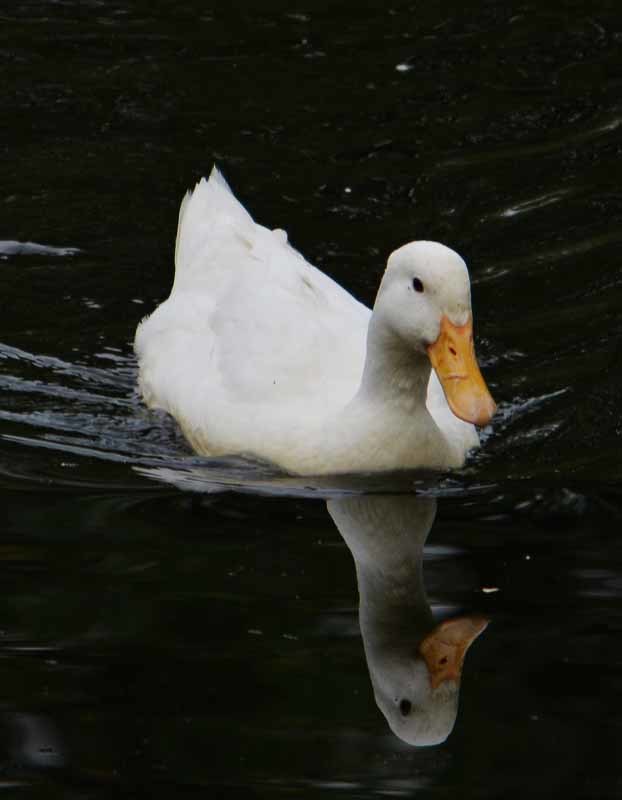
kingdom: Animalia
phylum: Chordata
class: Aves
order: Anseriformes
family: Anatidae
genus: Anas
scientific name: Anas platyrhynchos
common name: Mallard
